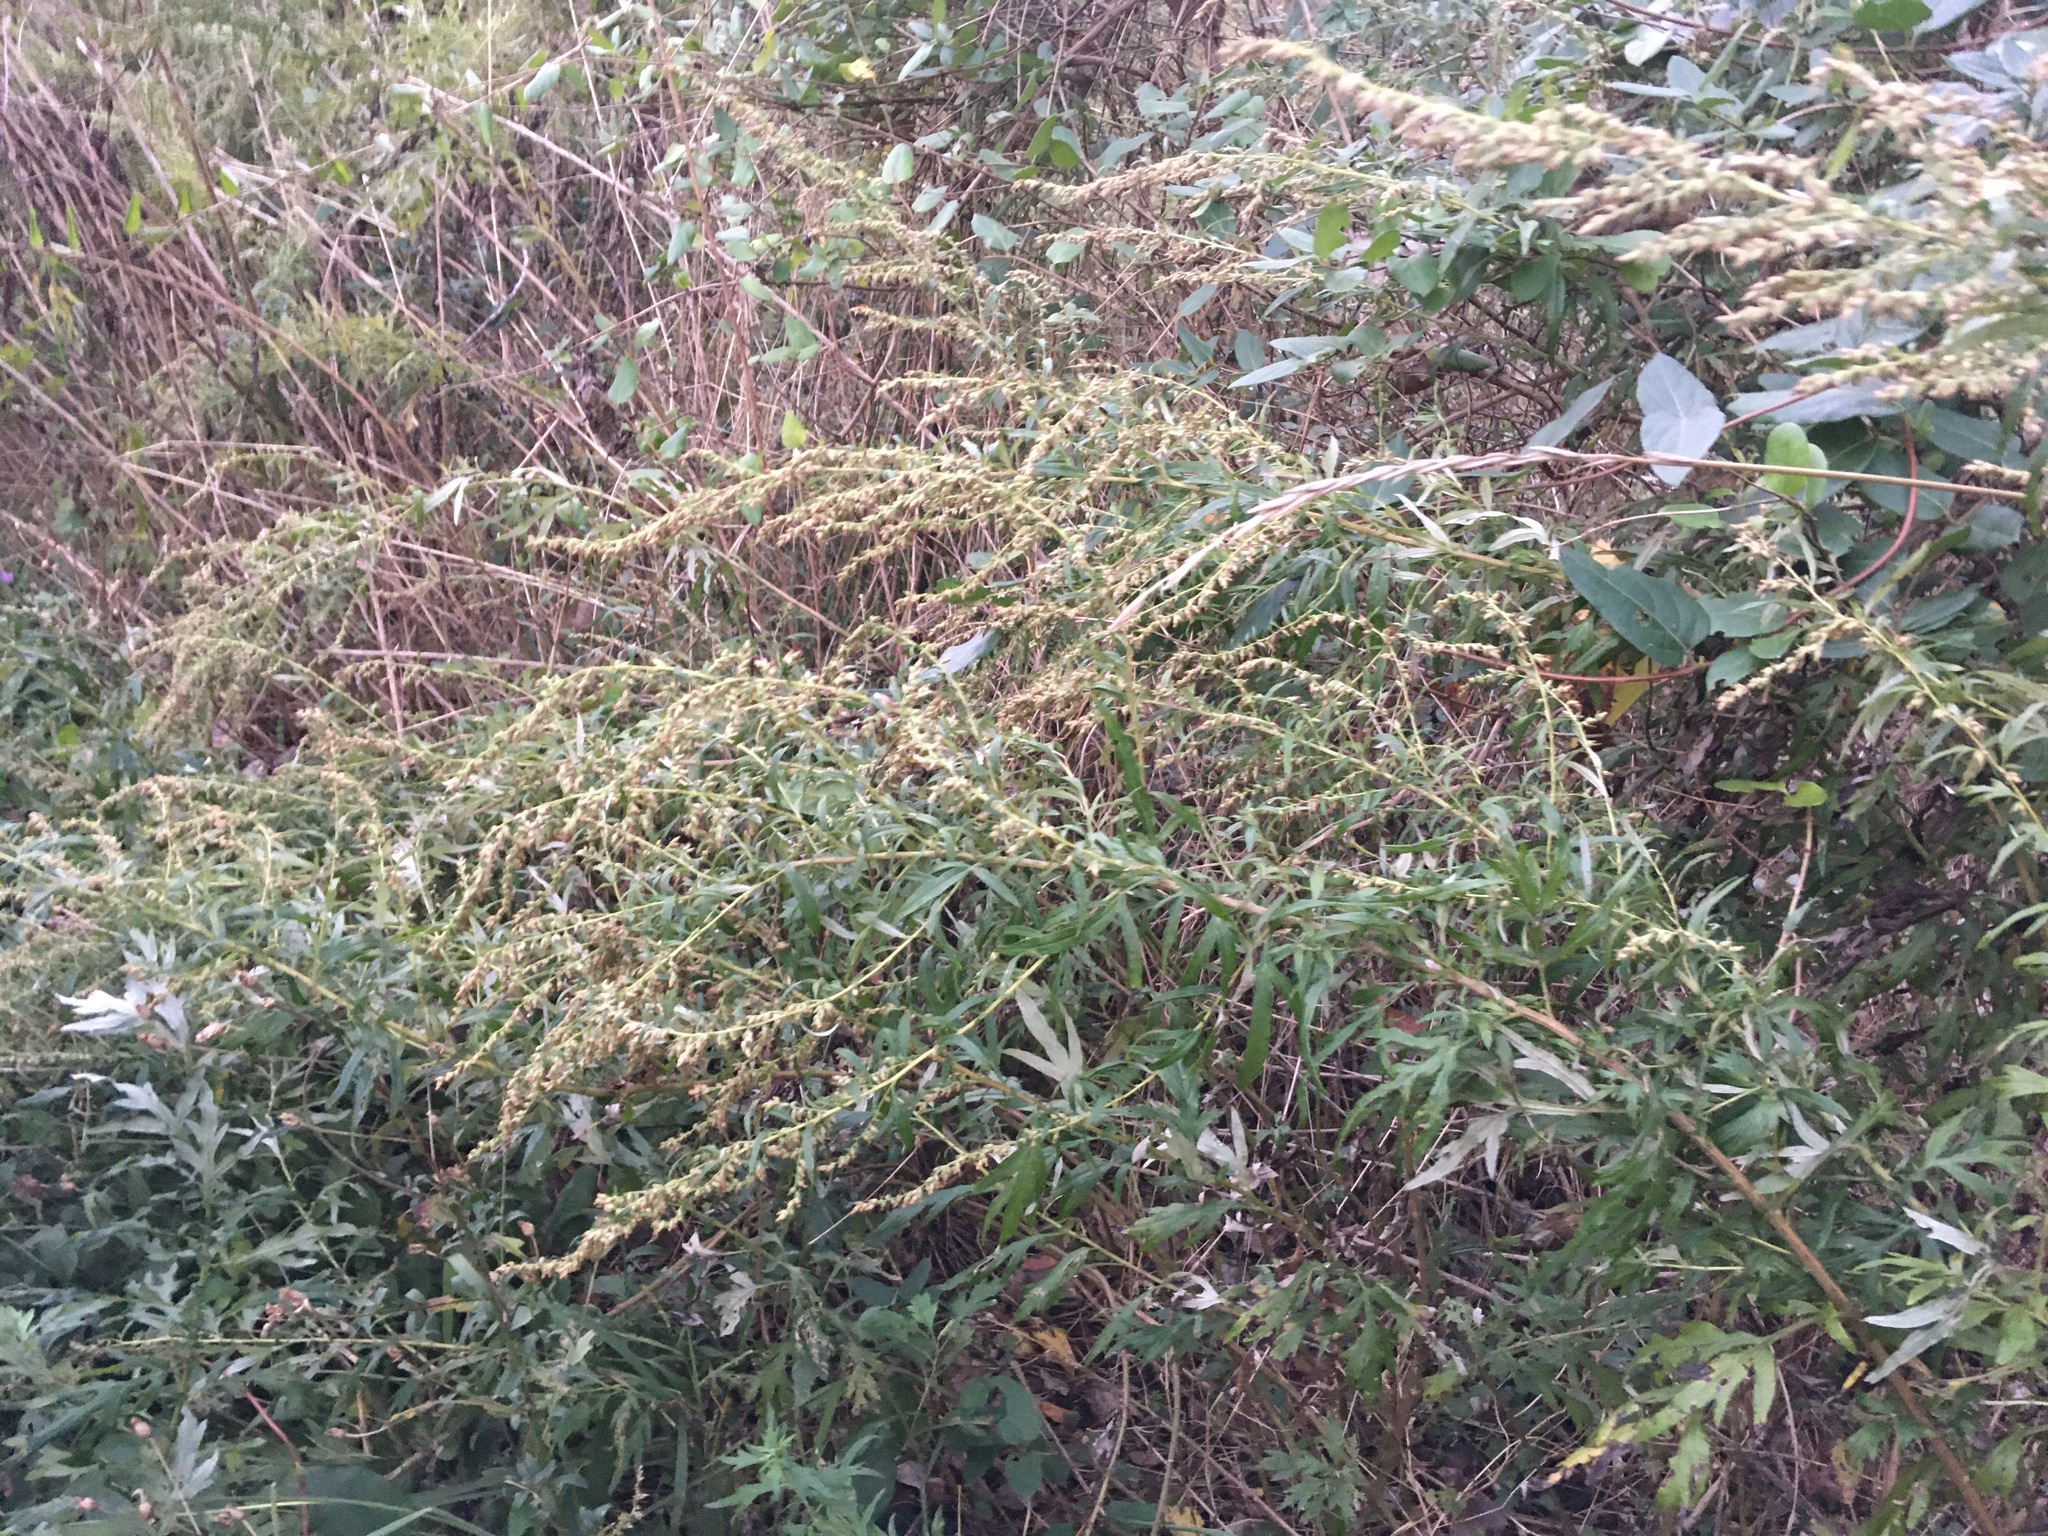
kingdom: Plantae
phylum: Tracheophyta
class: Magnoliopsida
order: Asterales
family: Asteraceae
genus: Artemisia
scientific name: Artemisia vulgaris
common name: Mugwort
